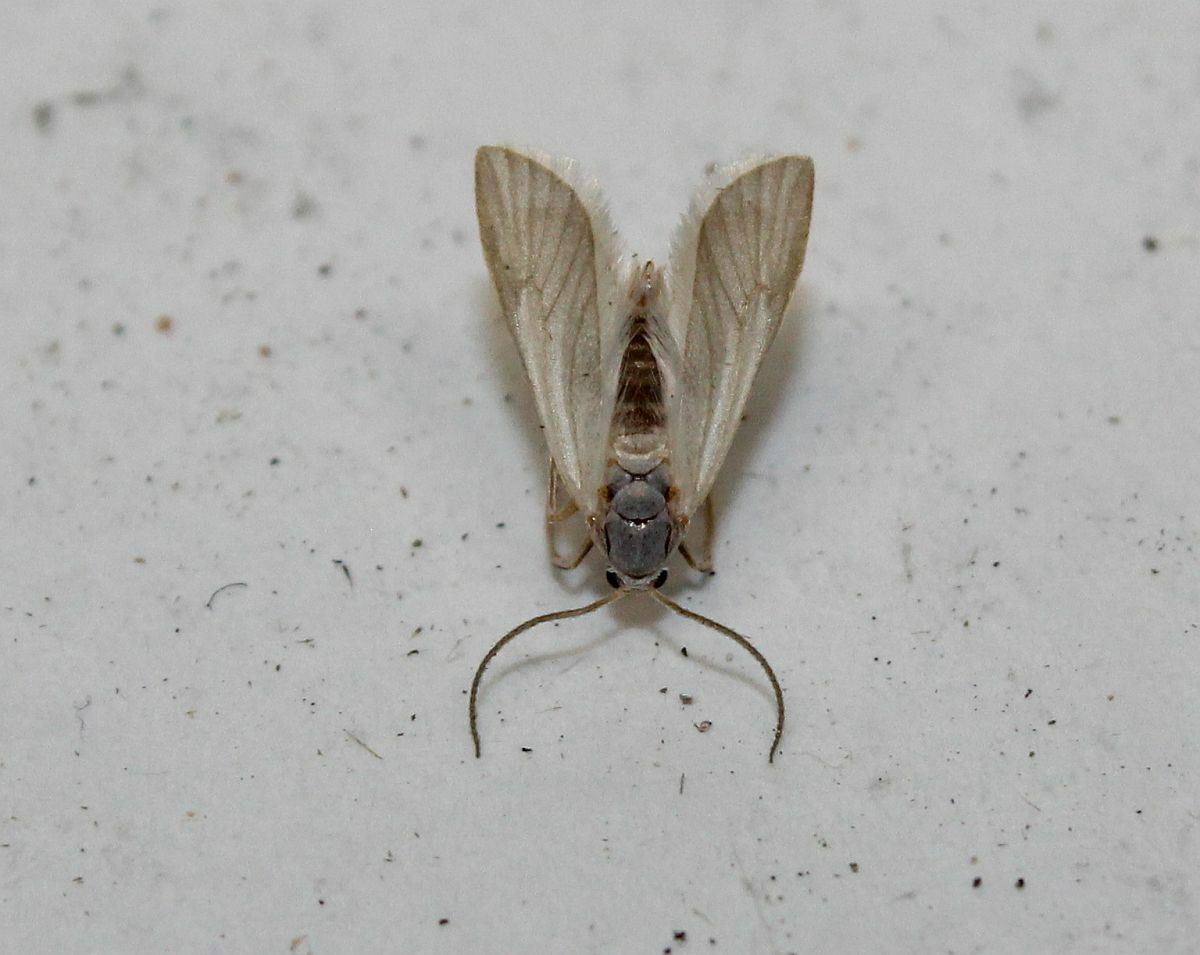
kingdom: Animalia
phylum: Arthropoda
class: Insecta
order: Lepidoptera
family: Crambidae
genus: Acentria
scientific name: Acentria ephemerella
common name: European water moth
